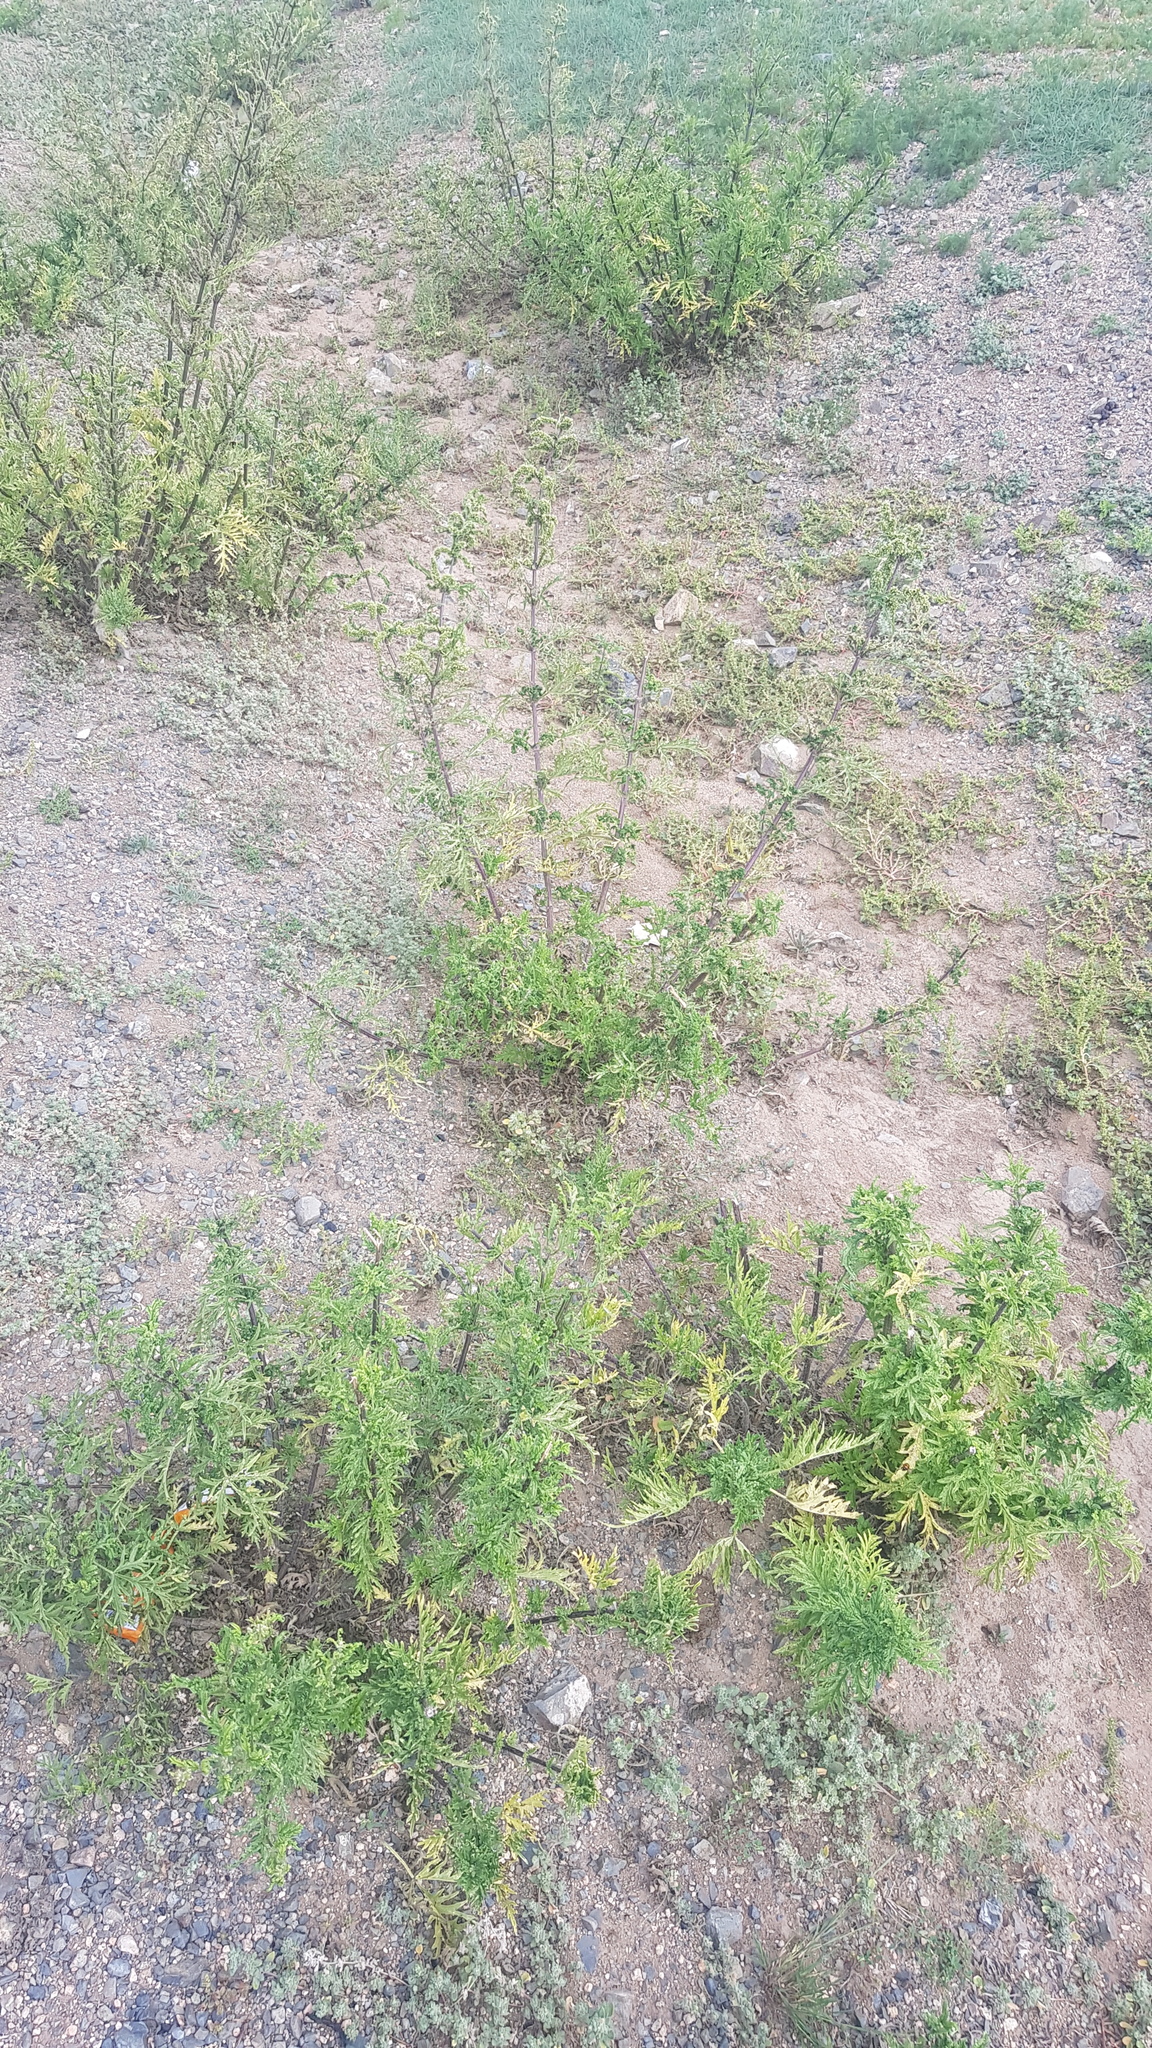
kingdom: Plantae
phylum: Tracheophyta
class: Magnoliopsida
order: Rosales
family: Urticaceae
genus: Urtica
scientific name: Urtica cannabina
